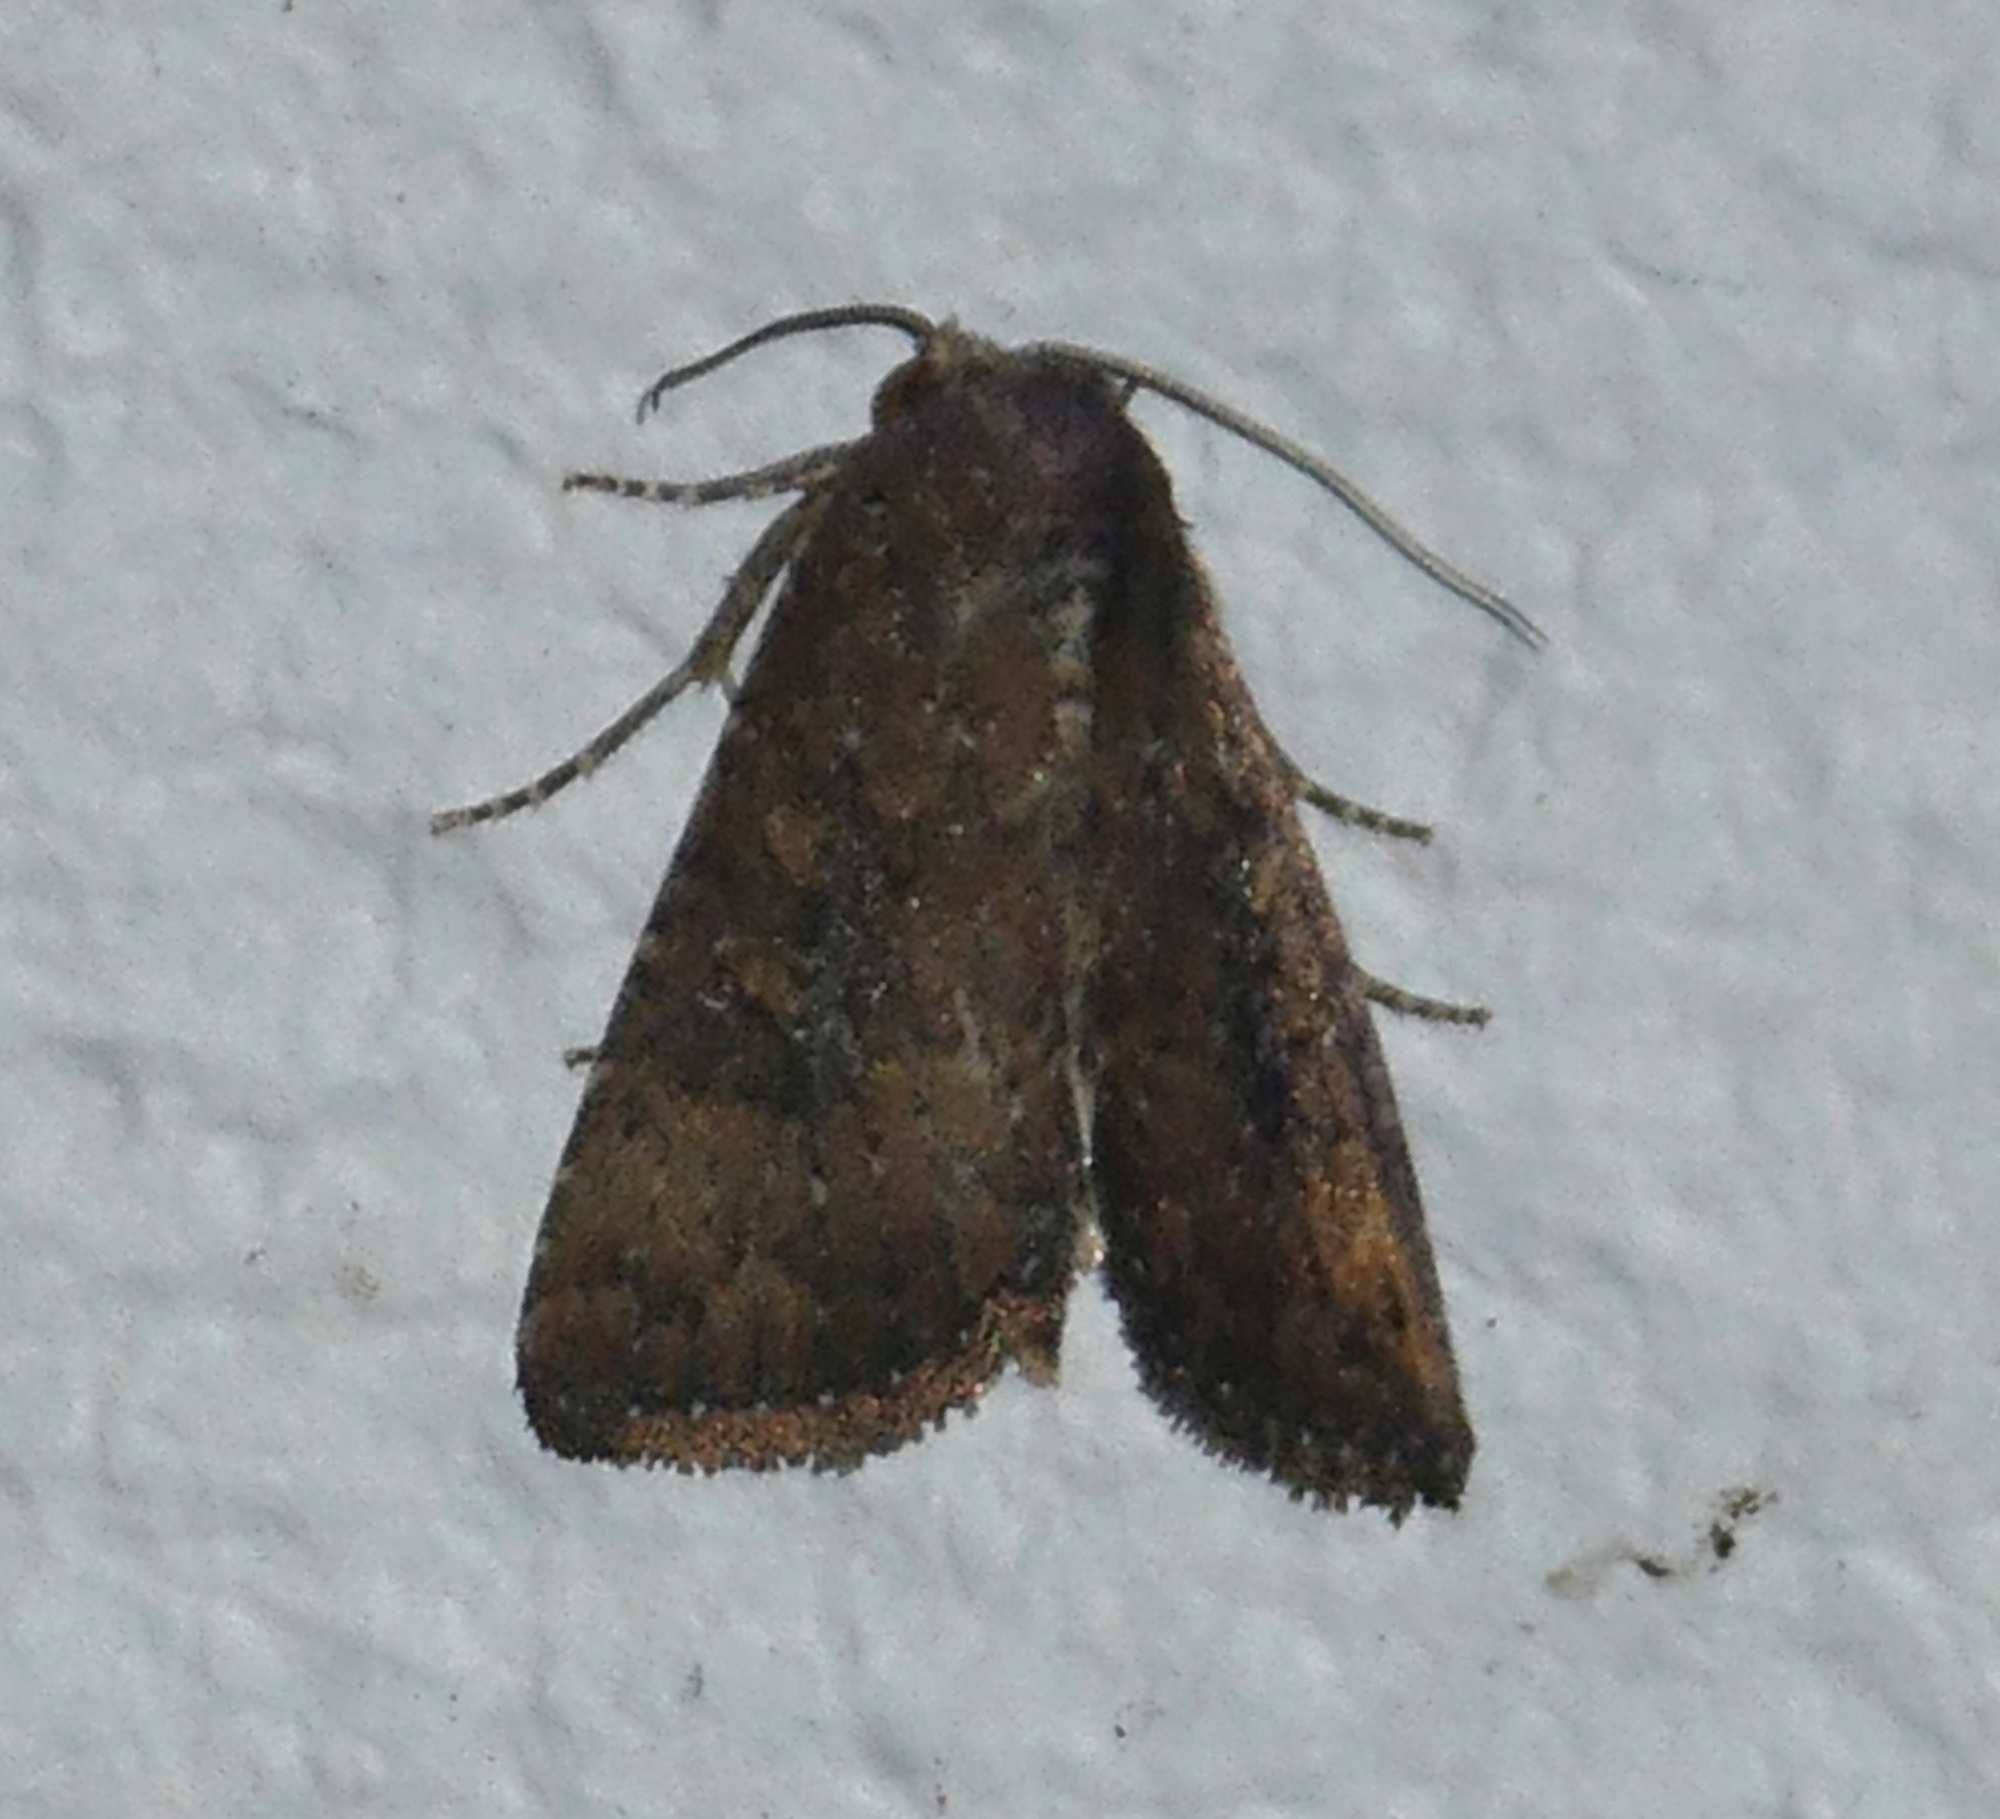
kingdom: Animalia
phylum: Arthropoda
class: Insecta
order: Lepidoptera
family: Noctuidae
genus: Condica
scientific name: Condica sutor
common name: Cobbler moth
